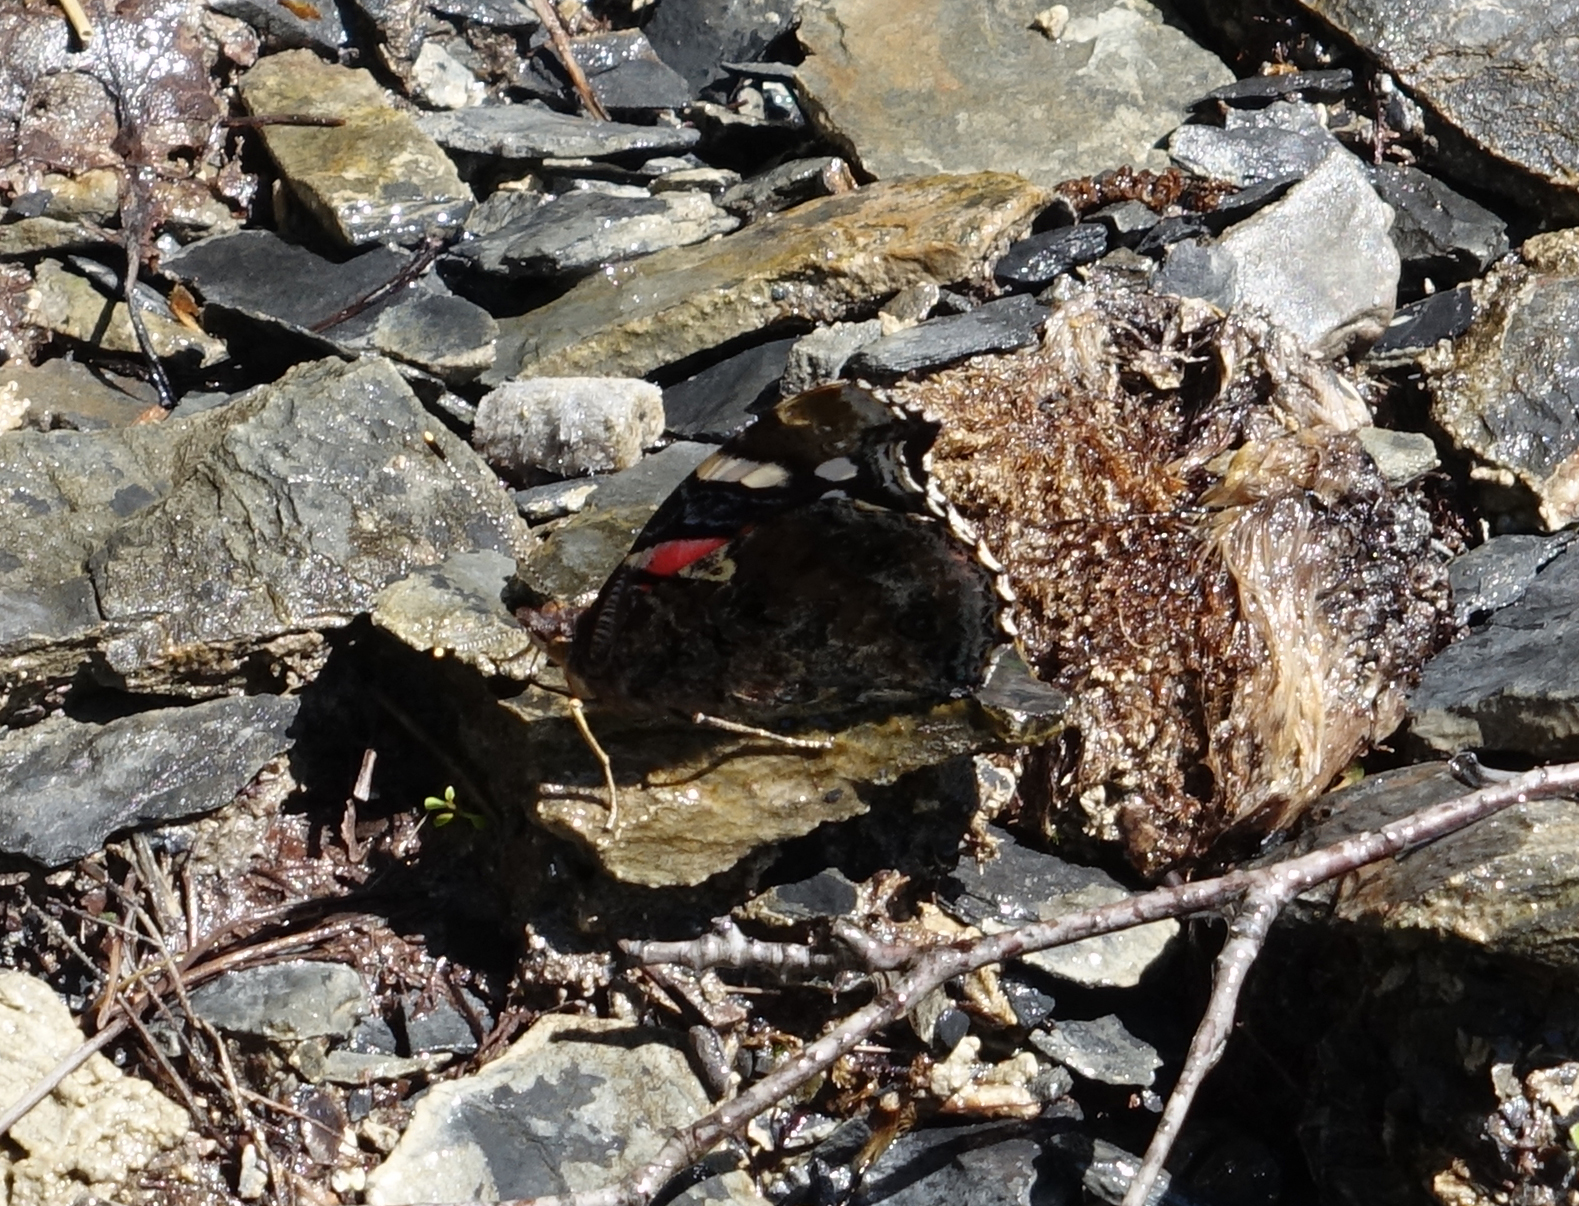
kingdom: Animalia
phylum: Arthropoda
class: Insecta
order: Lepidoptera
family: Nymphalidae
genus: Vanessa
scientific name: Vanessa atalanta
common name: Red admiral
